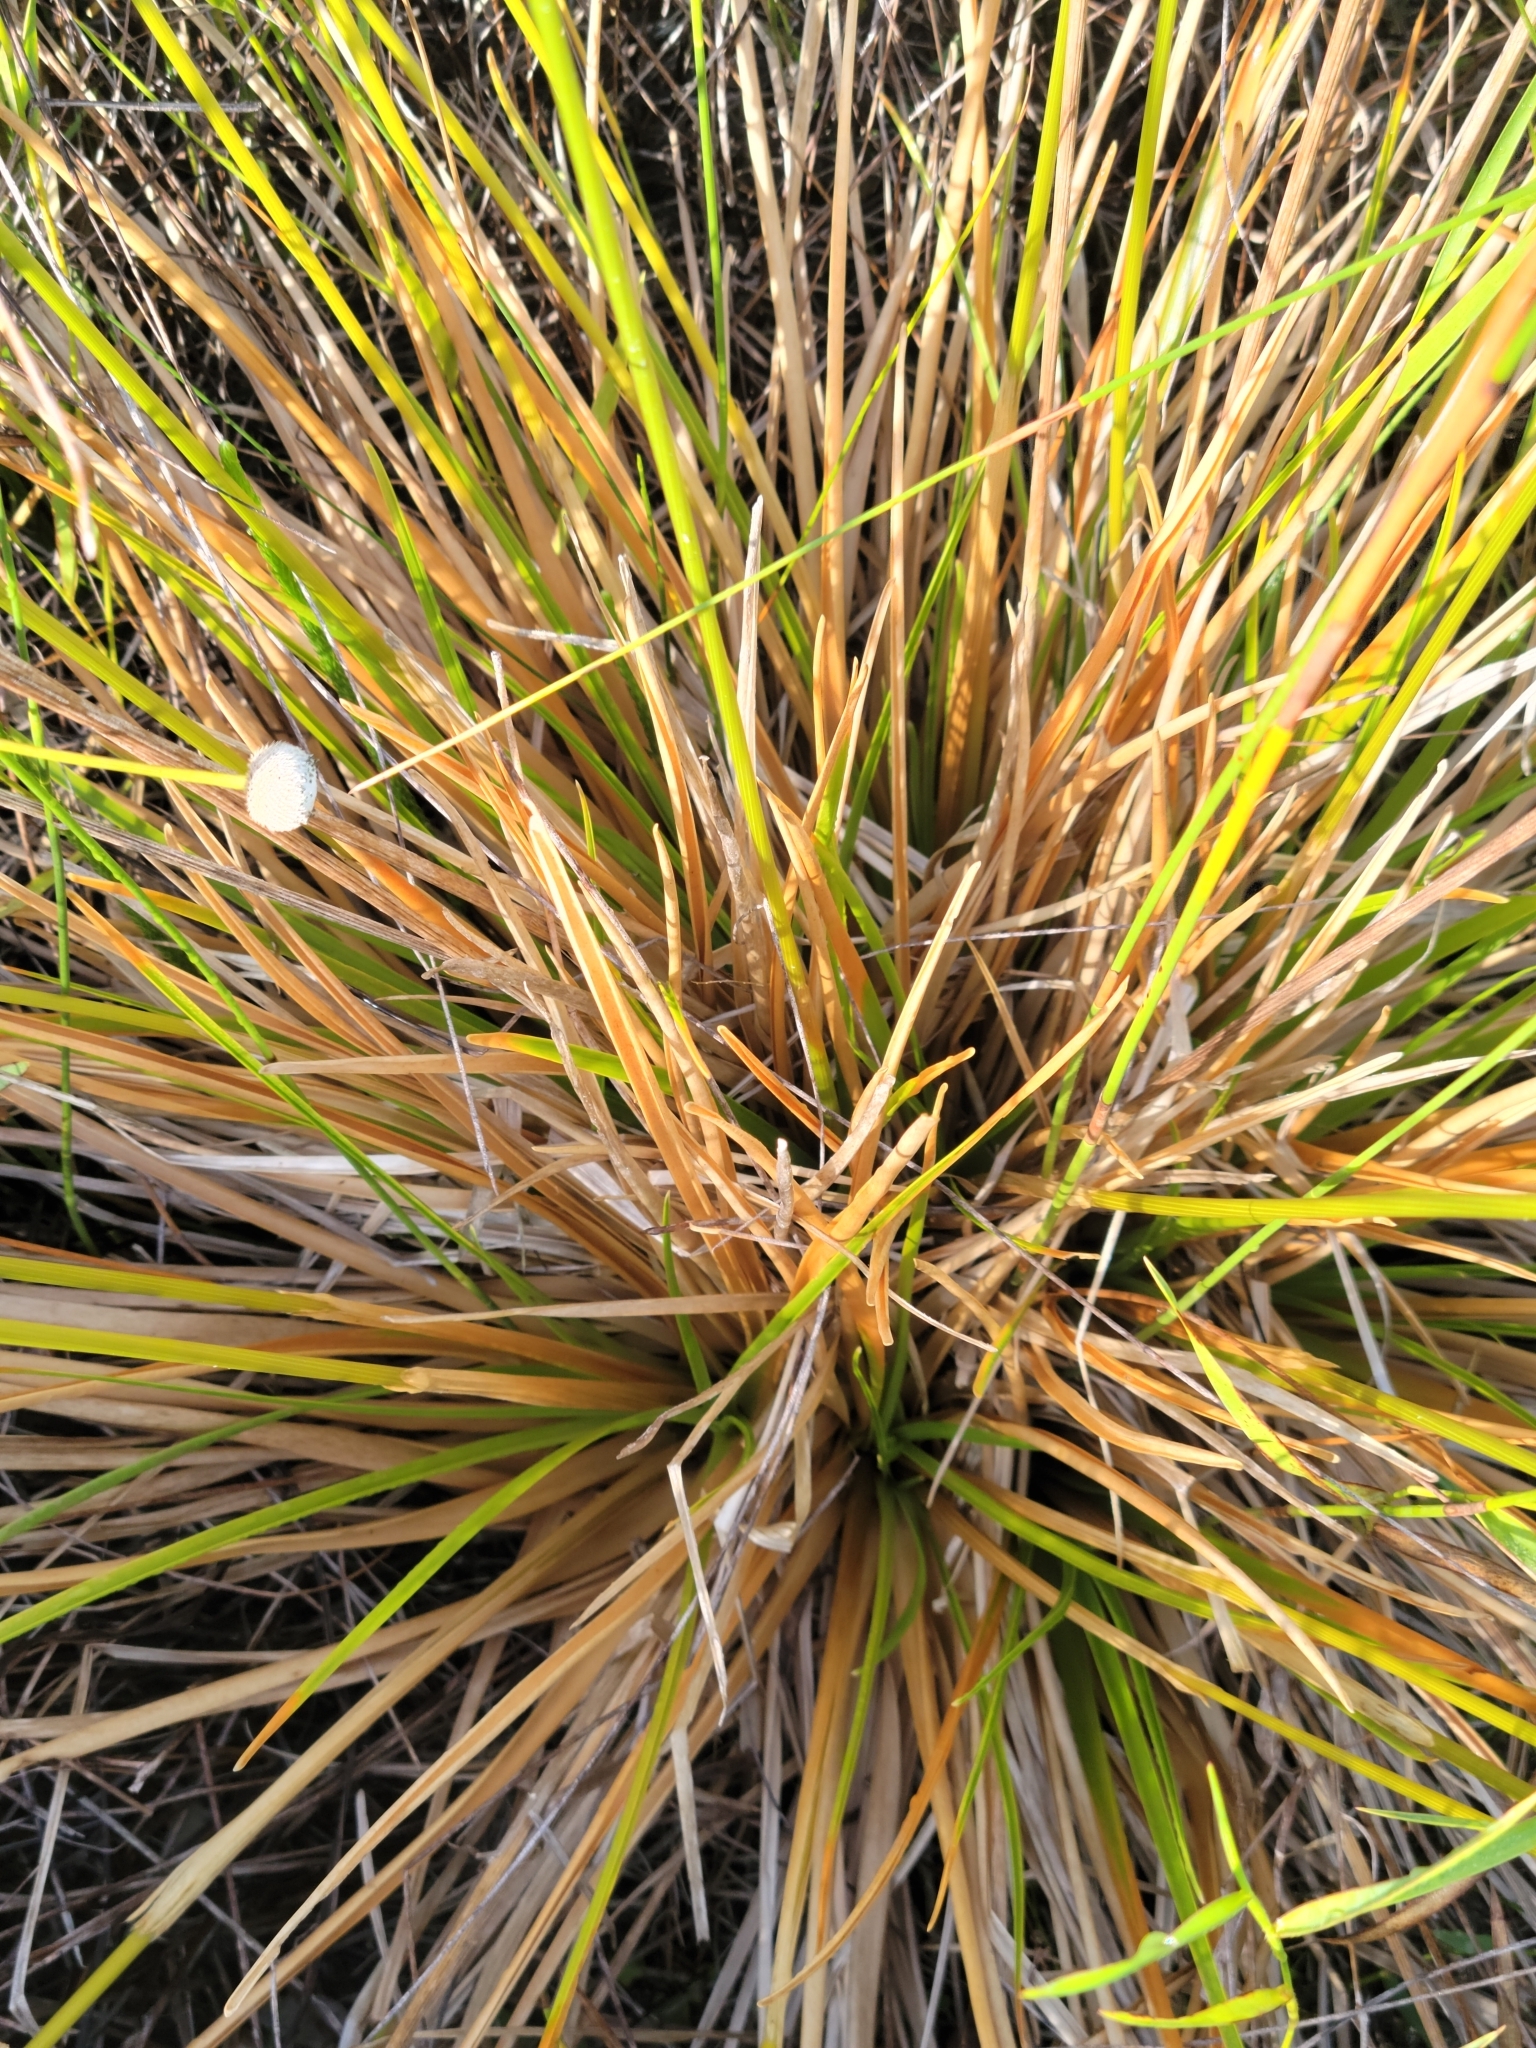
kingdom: Plantae
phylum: Tracheophyta
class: Liliopsida
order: Poales
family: Eriocaulaceae
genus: Eriocaulon
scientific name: Eriocaulon decangulare
